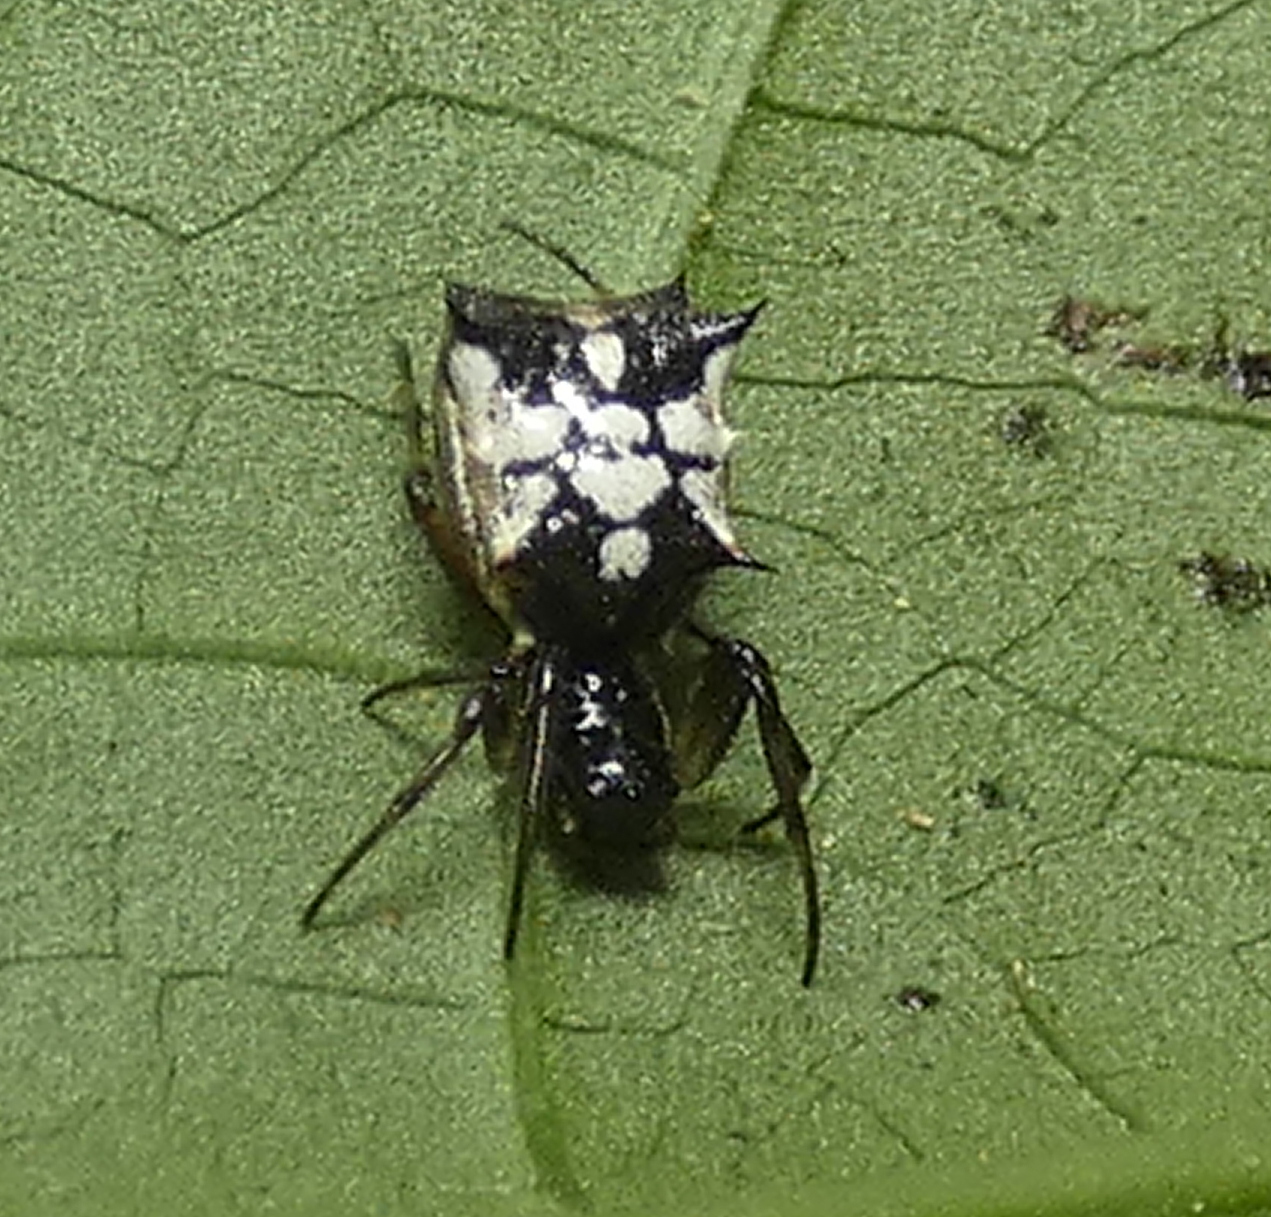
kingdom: Animalia
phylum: Arthropoda
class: Arachnida
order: Araneae
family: Araneidae
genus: Micrathena
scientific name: Micrathena picta
